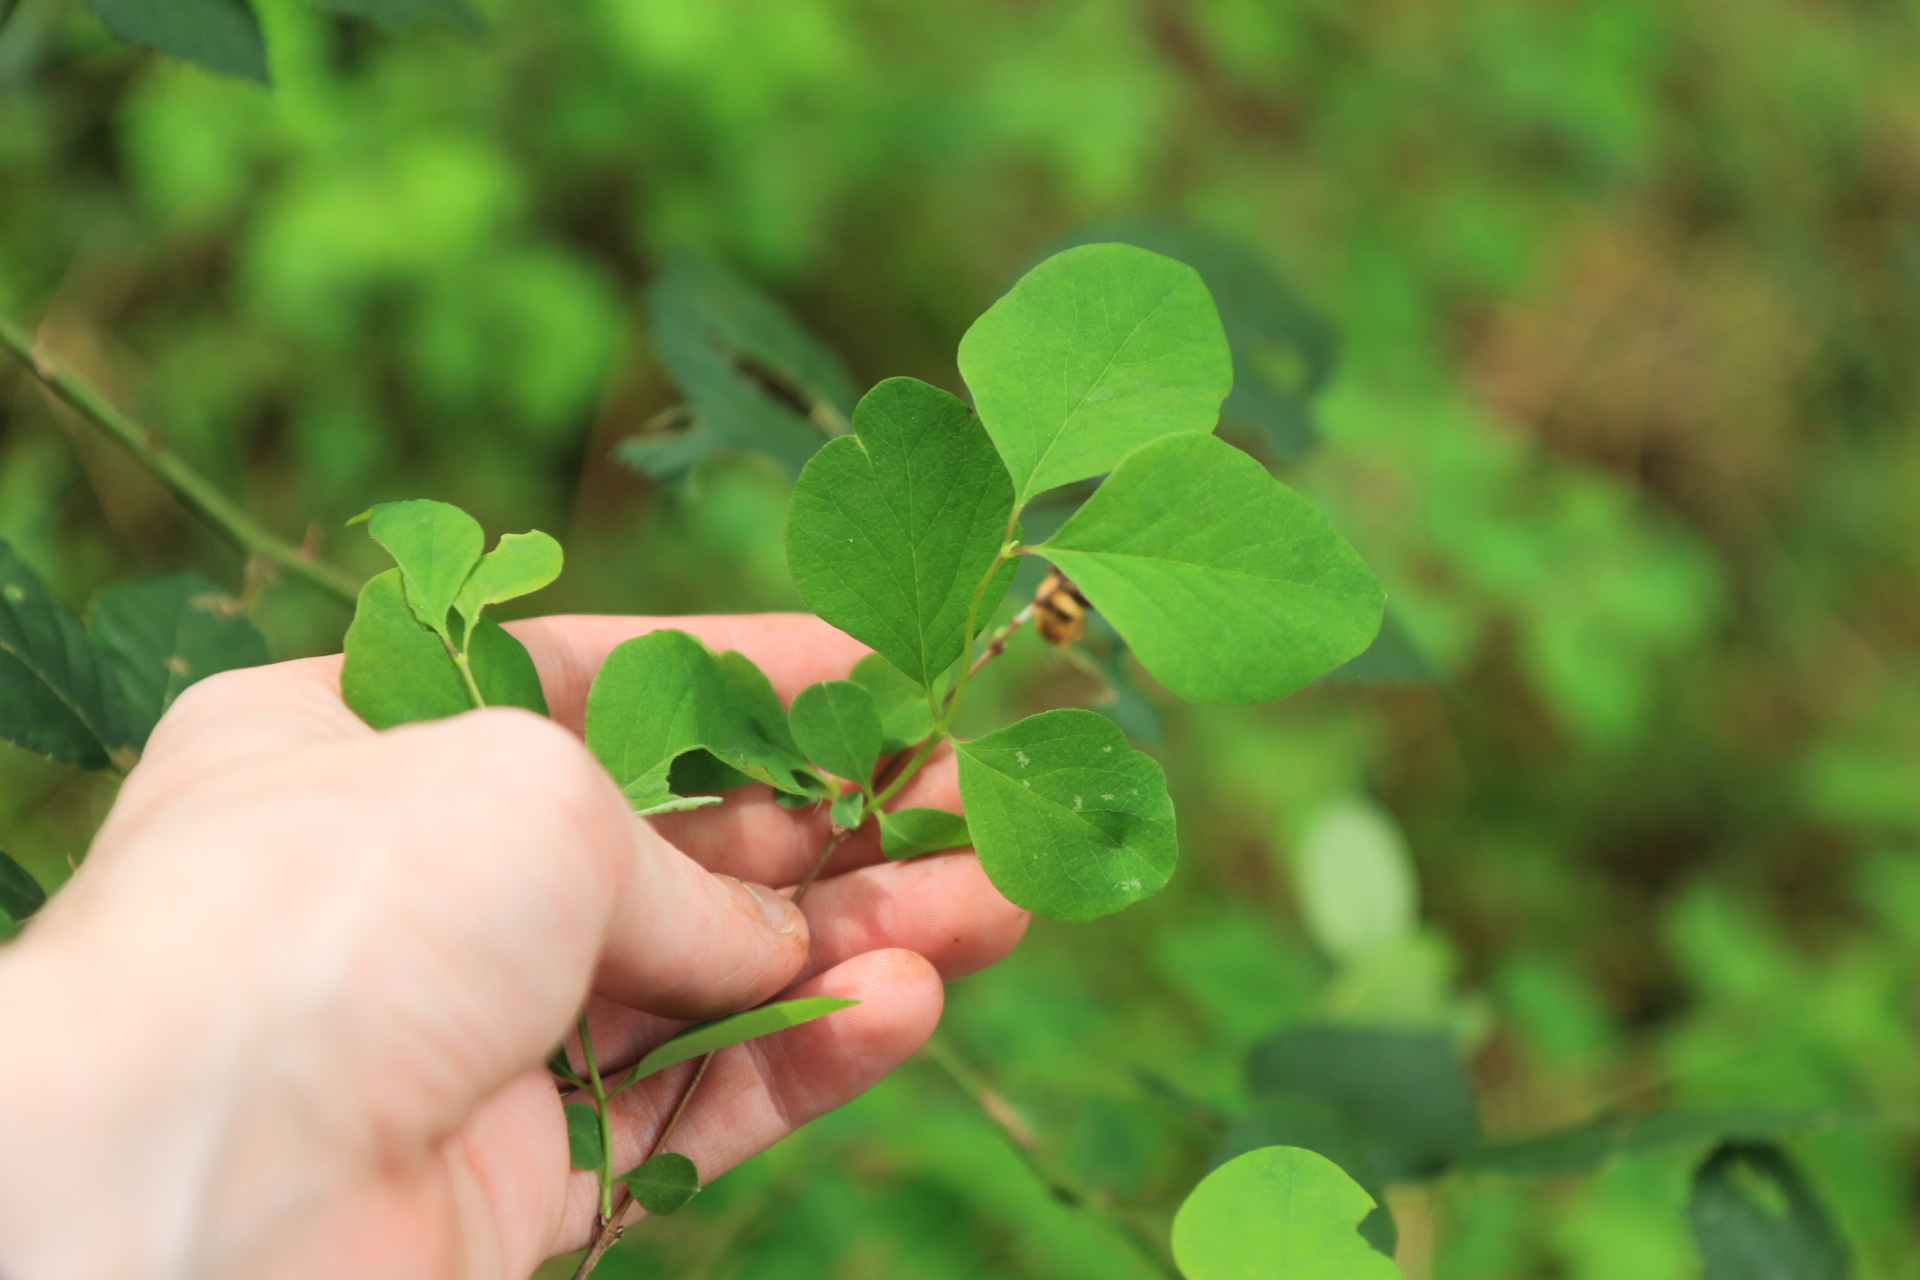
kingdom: Plantae
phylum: Tracheophyta
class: Magnoliopsida
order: Dipsacales
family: Caprifoliaceae
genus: Symphoricarpos
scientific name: Symphoricarpos albus
